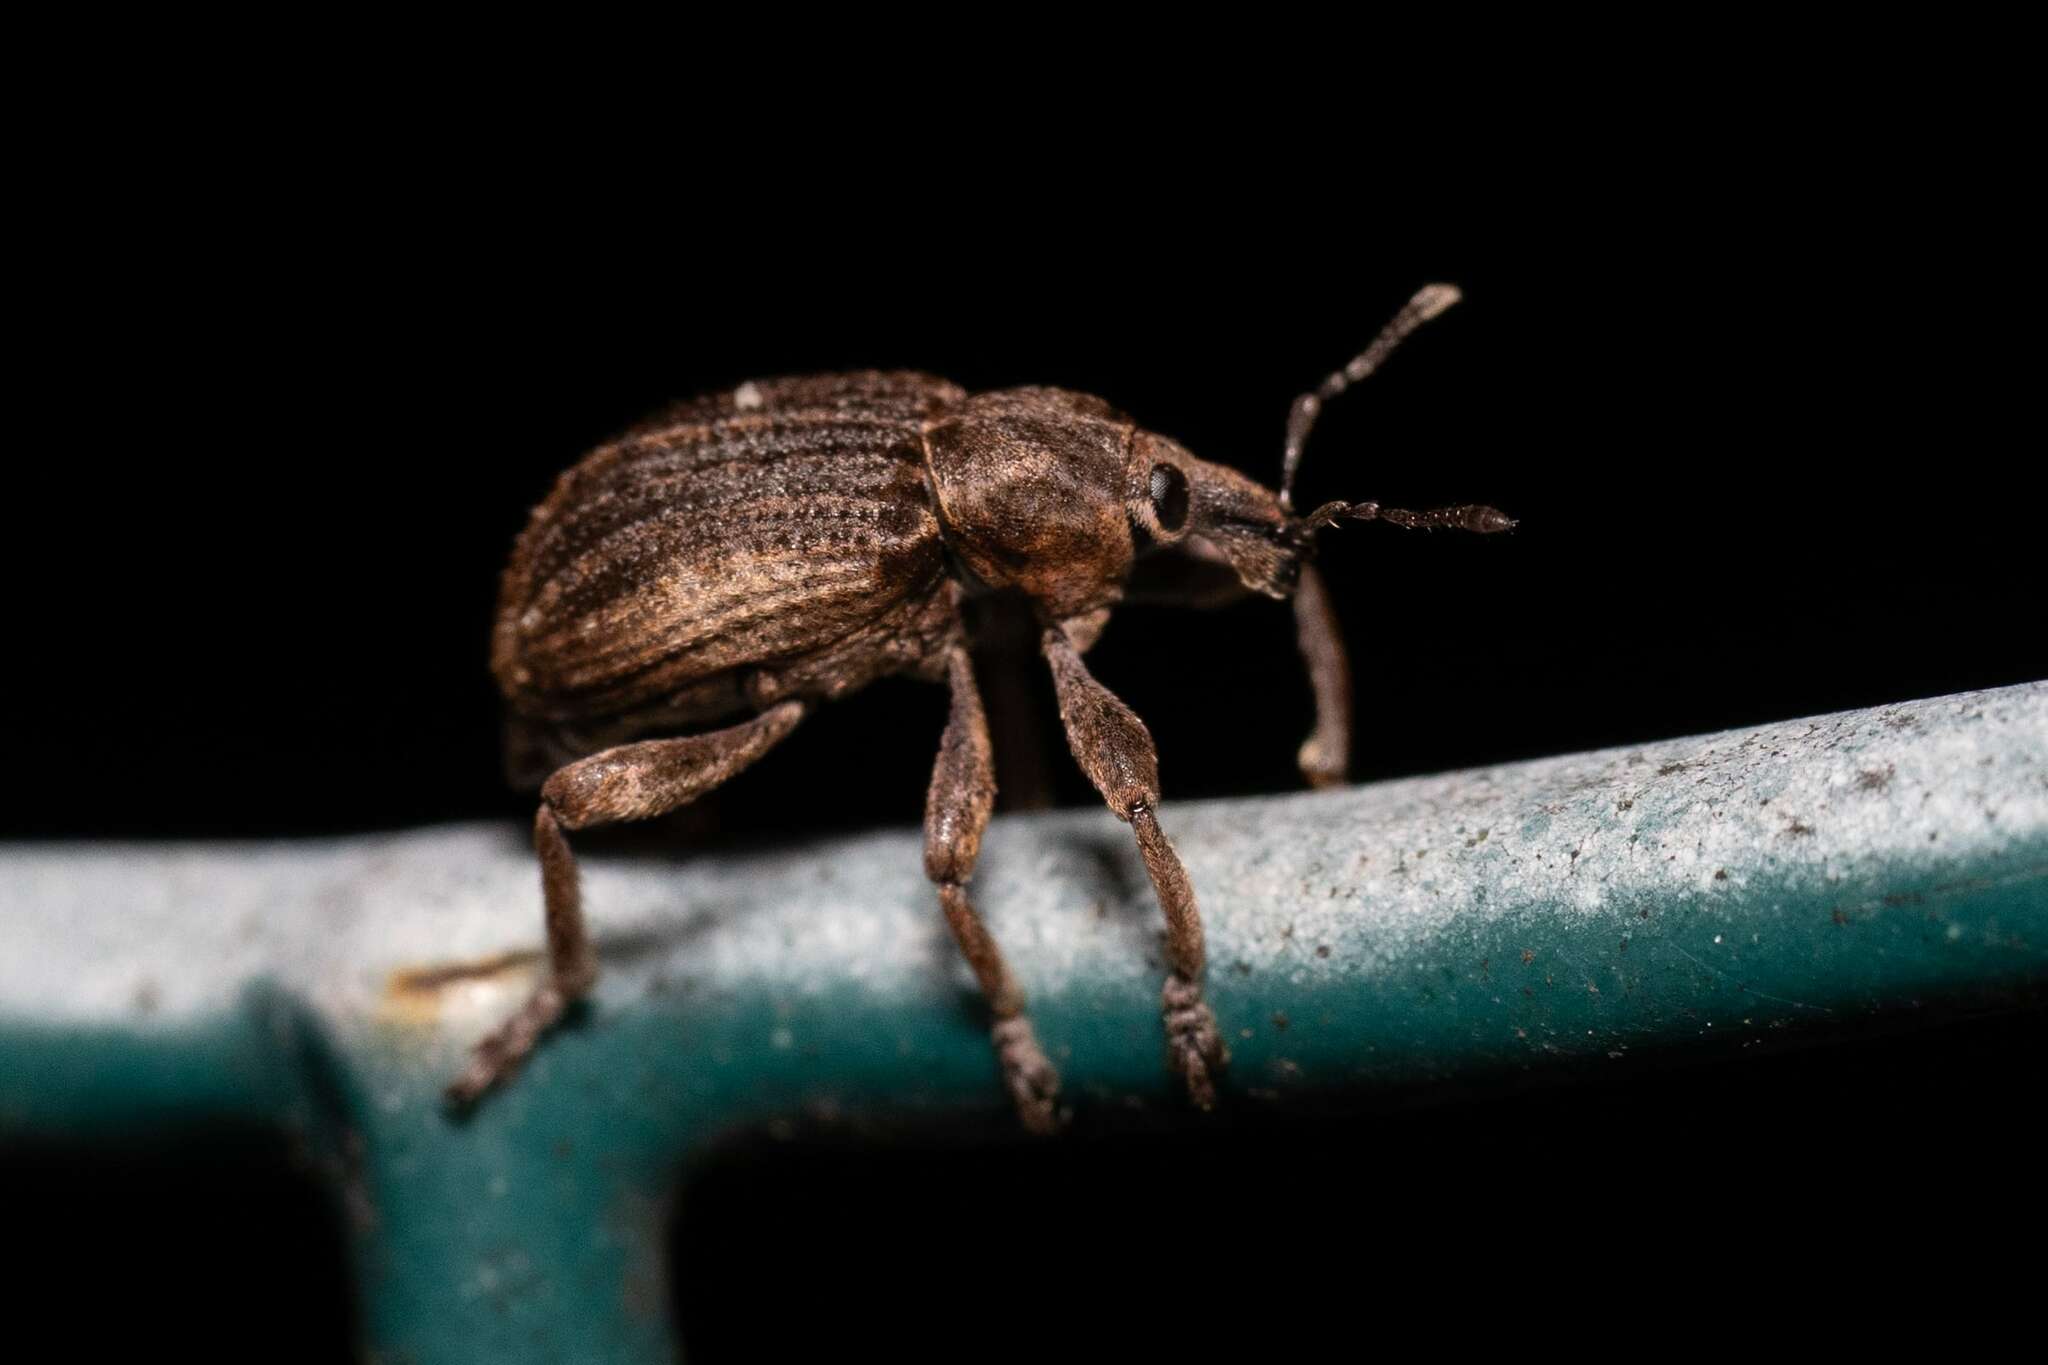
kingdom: Animalia
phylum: Arthropoda
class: Insecta
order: Coleoptera
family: Curculionidae
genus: Brachypera
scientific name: Brachypera zoilus
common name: Clover leaf weevil
